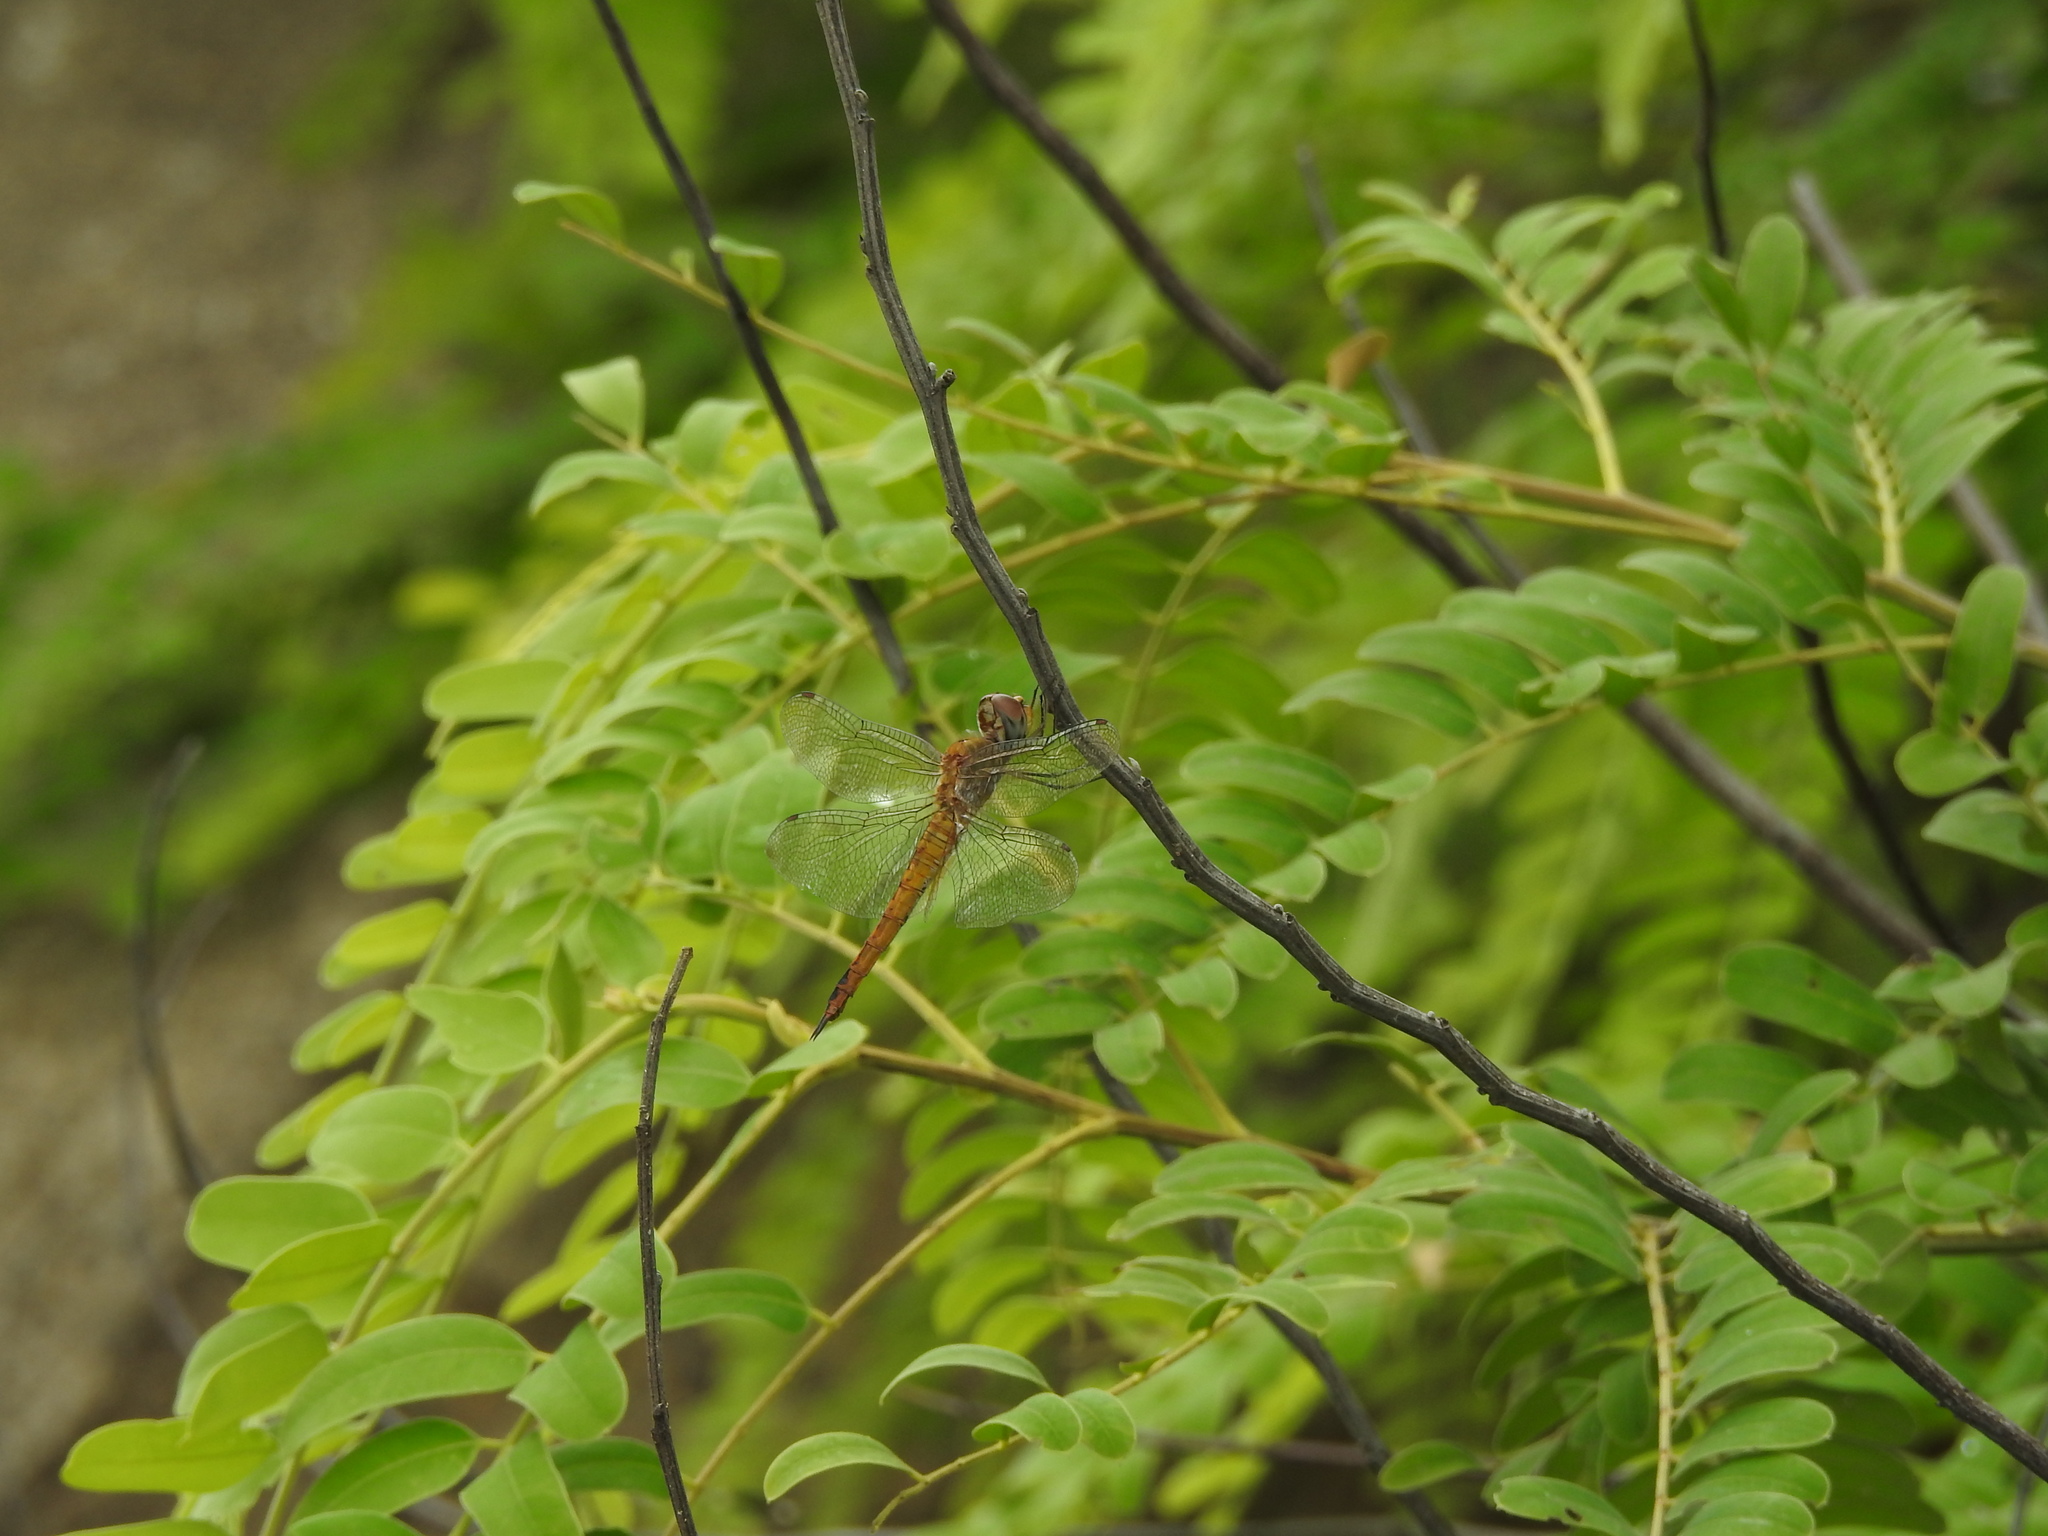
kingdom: Animalia
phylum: Arthropoda
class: Insecta
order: Odonata
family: Libellulidae
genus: Pantala
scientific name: Pantala flavescens
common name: Wandering glider
